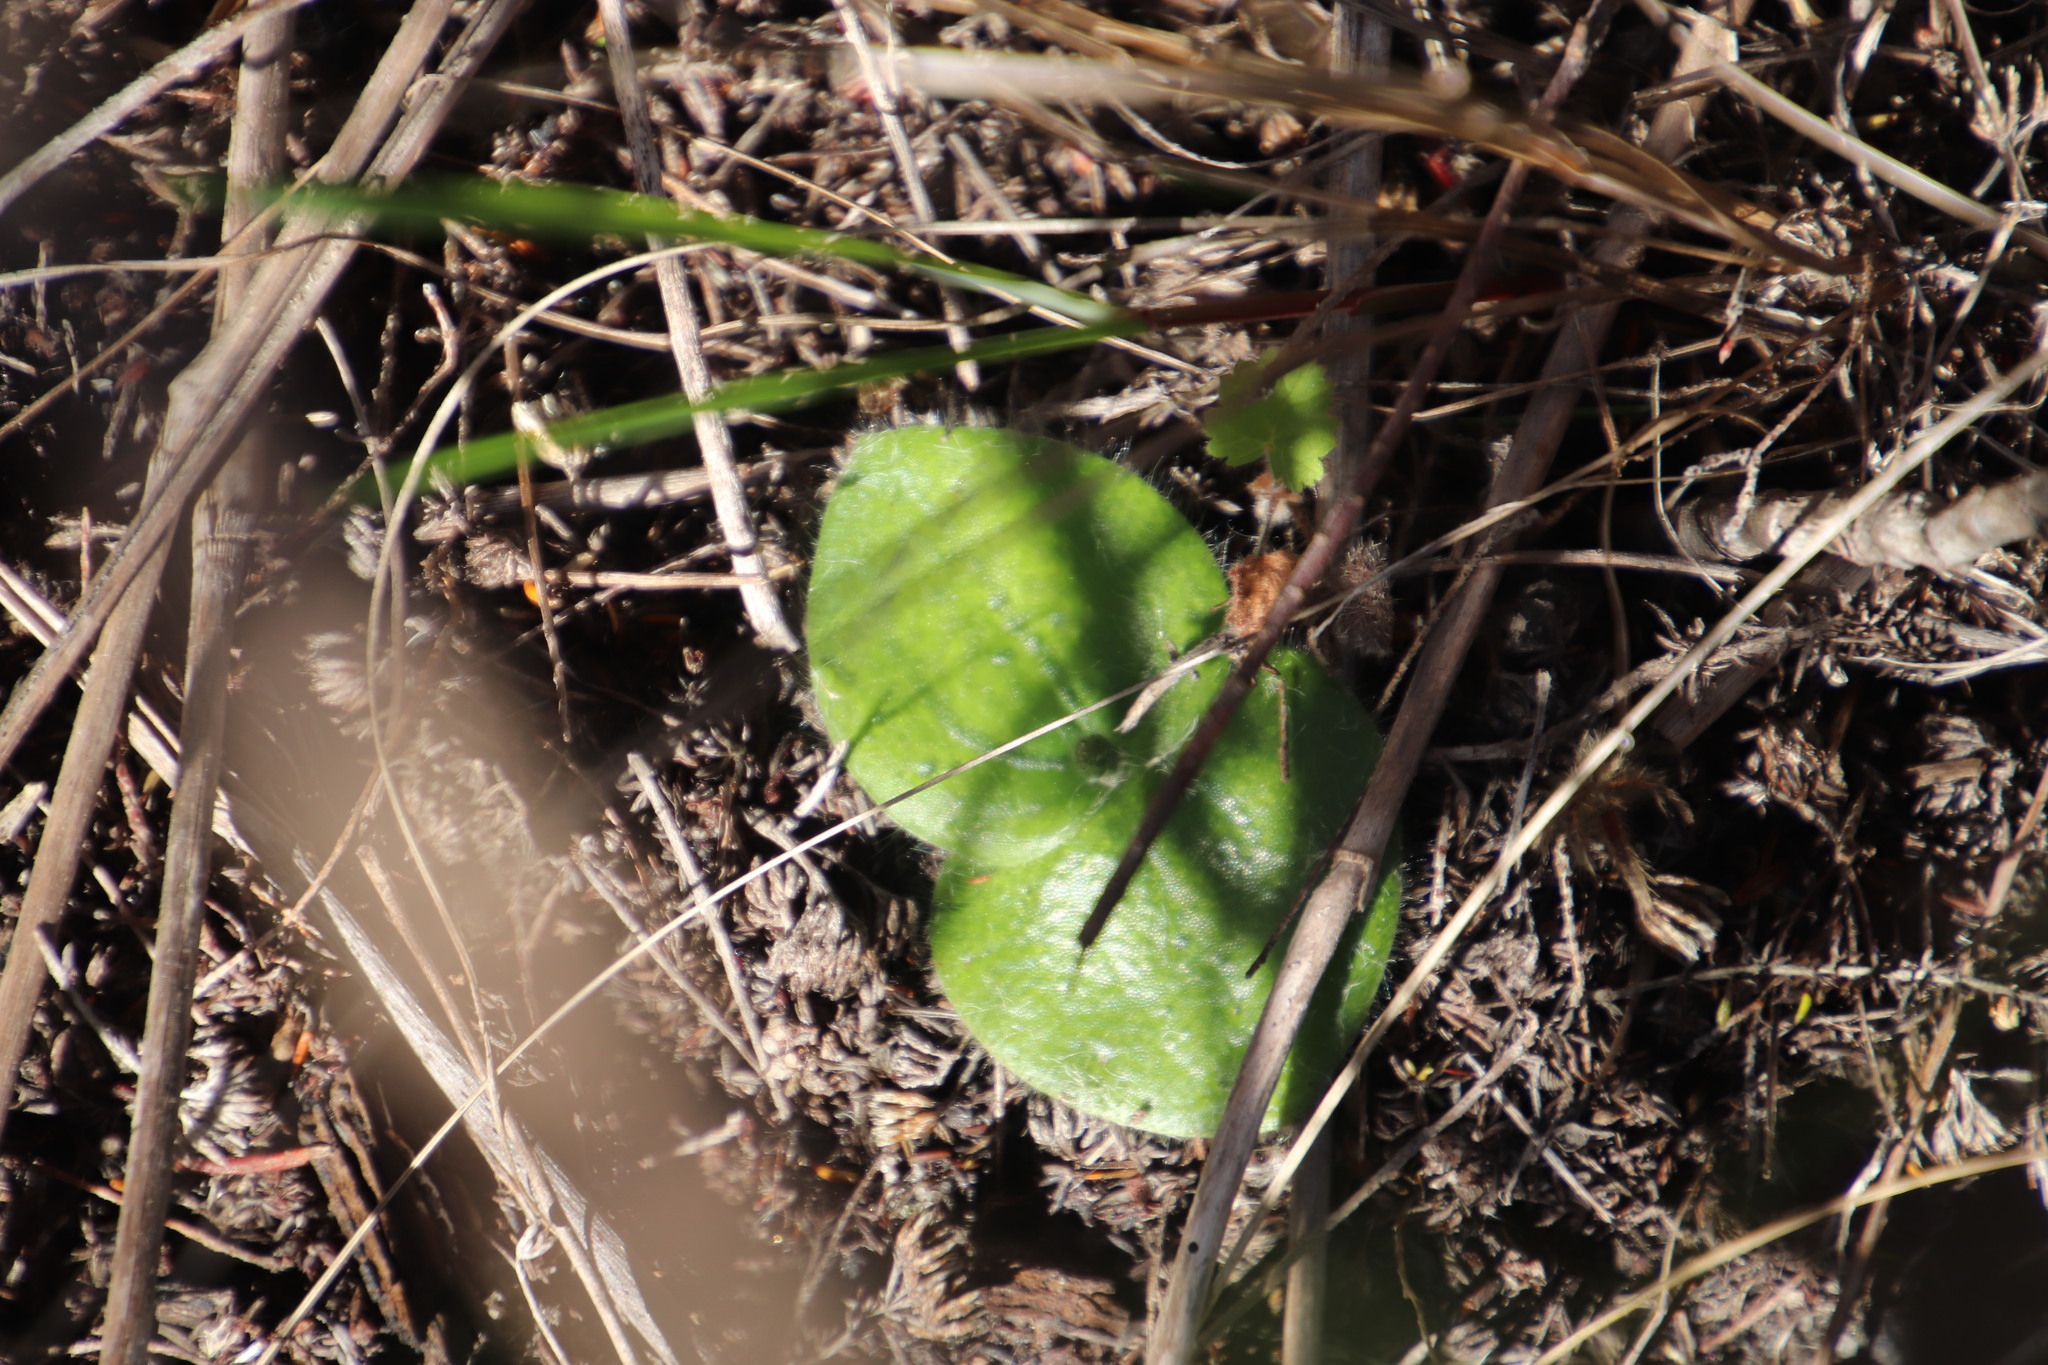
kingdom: Plantae
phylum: Tracheophyta
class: Liliopsida
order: Asparagales
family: Orchidaceae
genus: Holothrix
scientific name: Holothrix villosa
